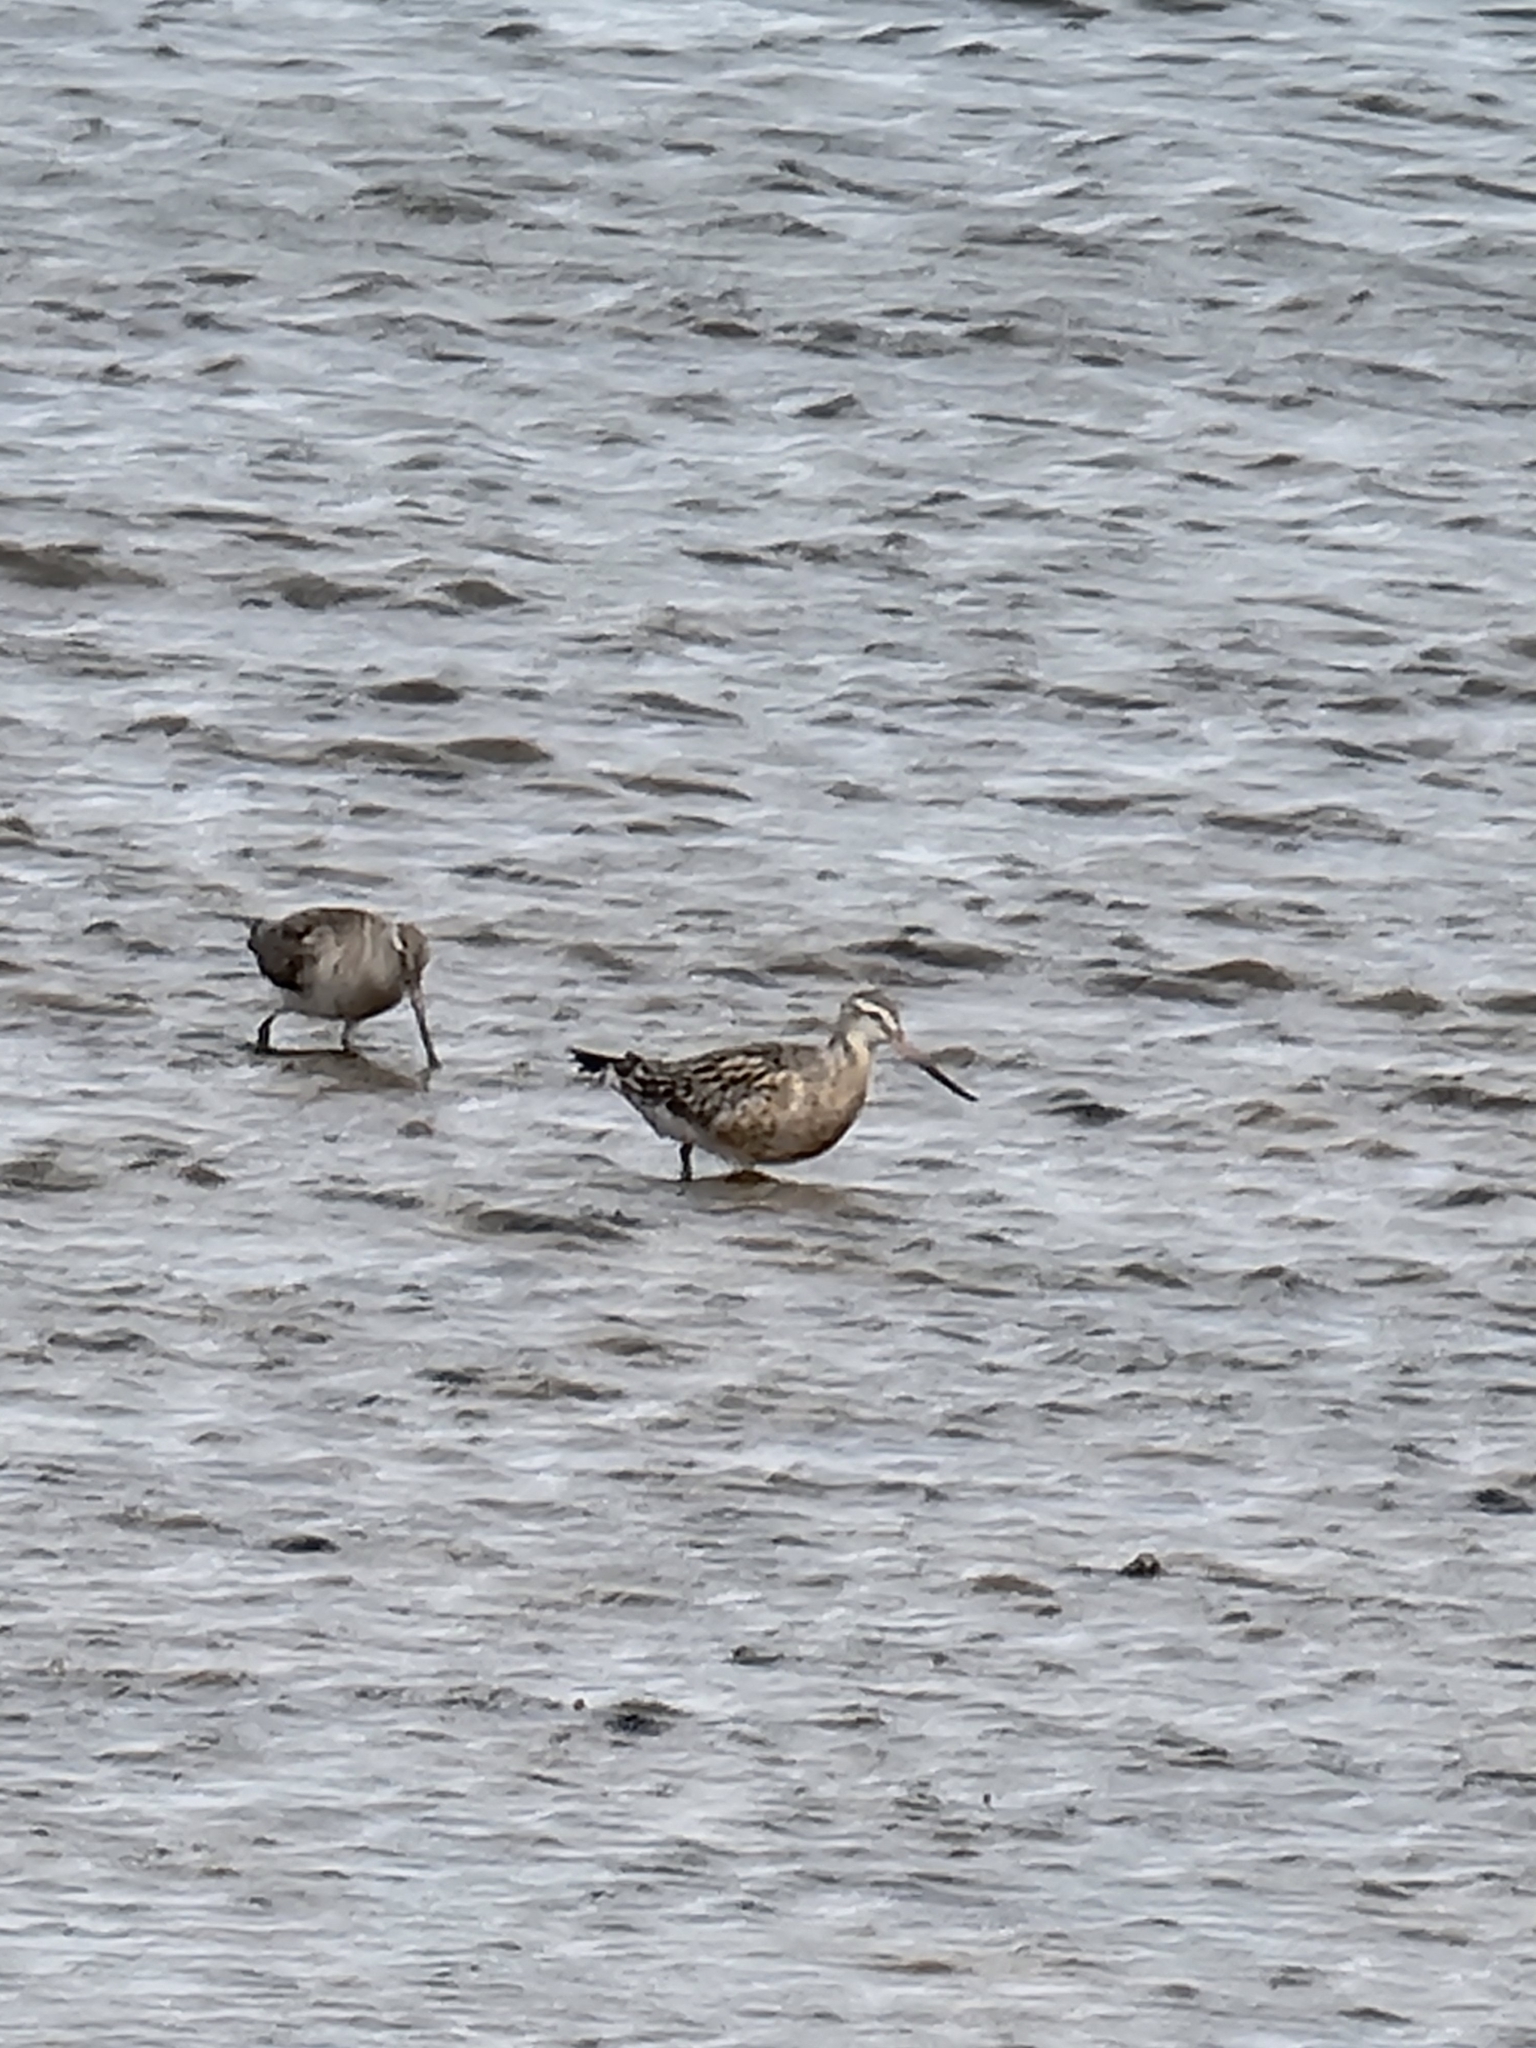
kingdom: Animalia
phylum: Chordata
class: Aves
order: Charadriiformes
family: Scolopacidae
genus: Limosa
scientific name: Limosa lapponica
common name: Bar-tailed godwit
